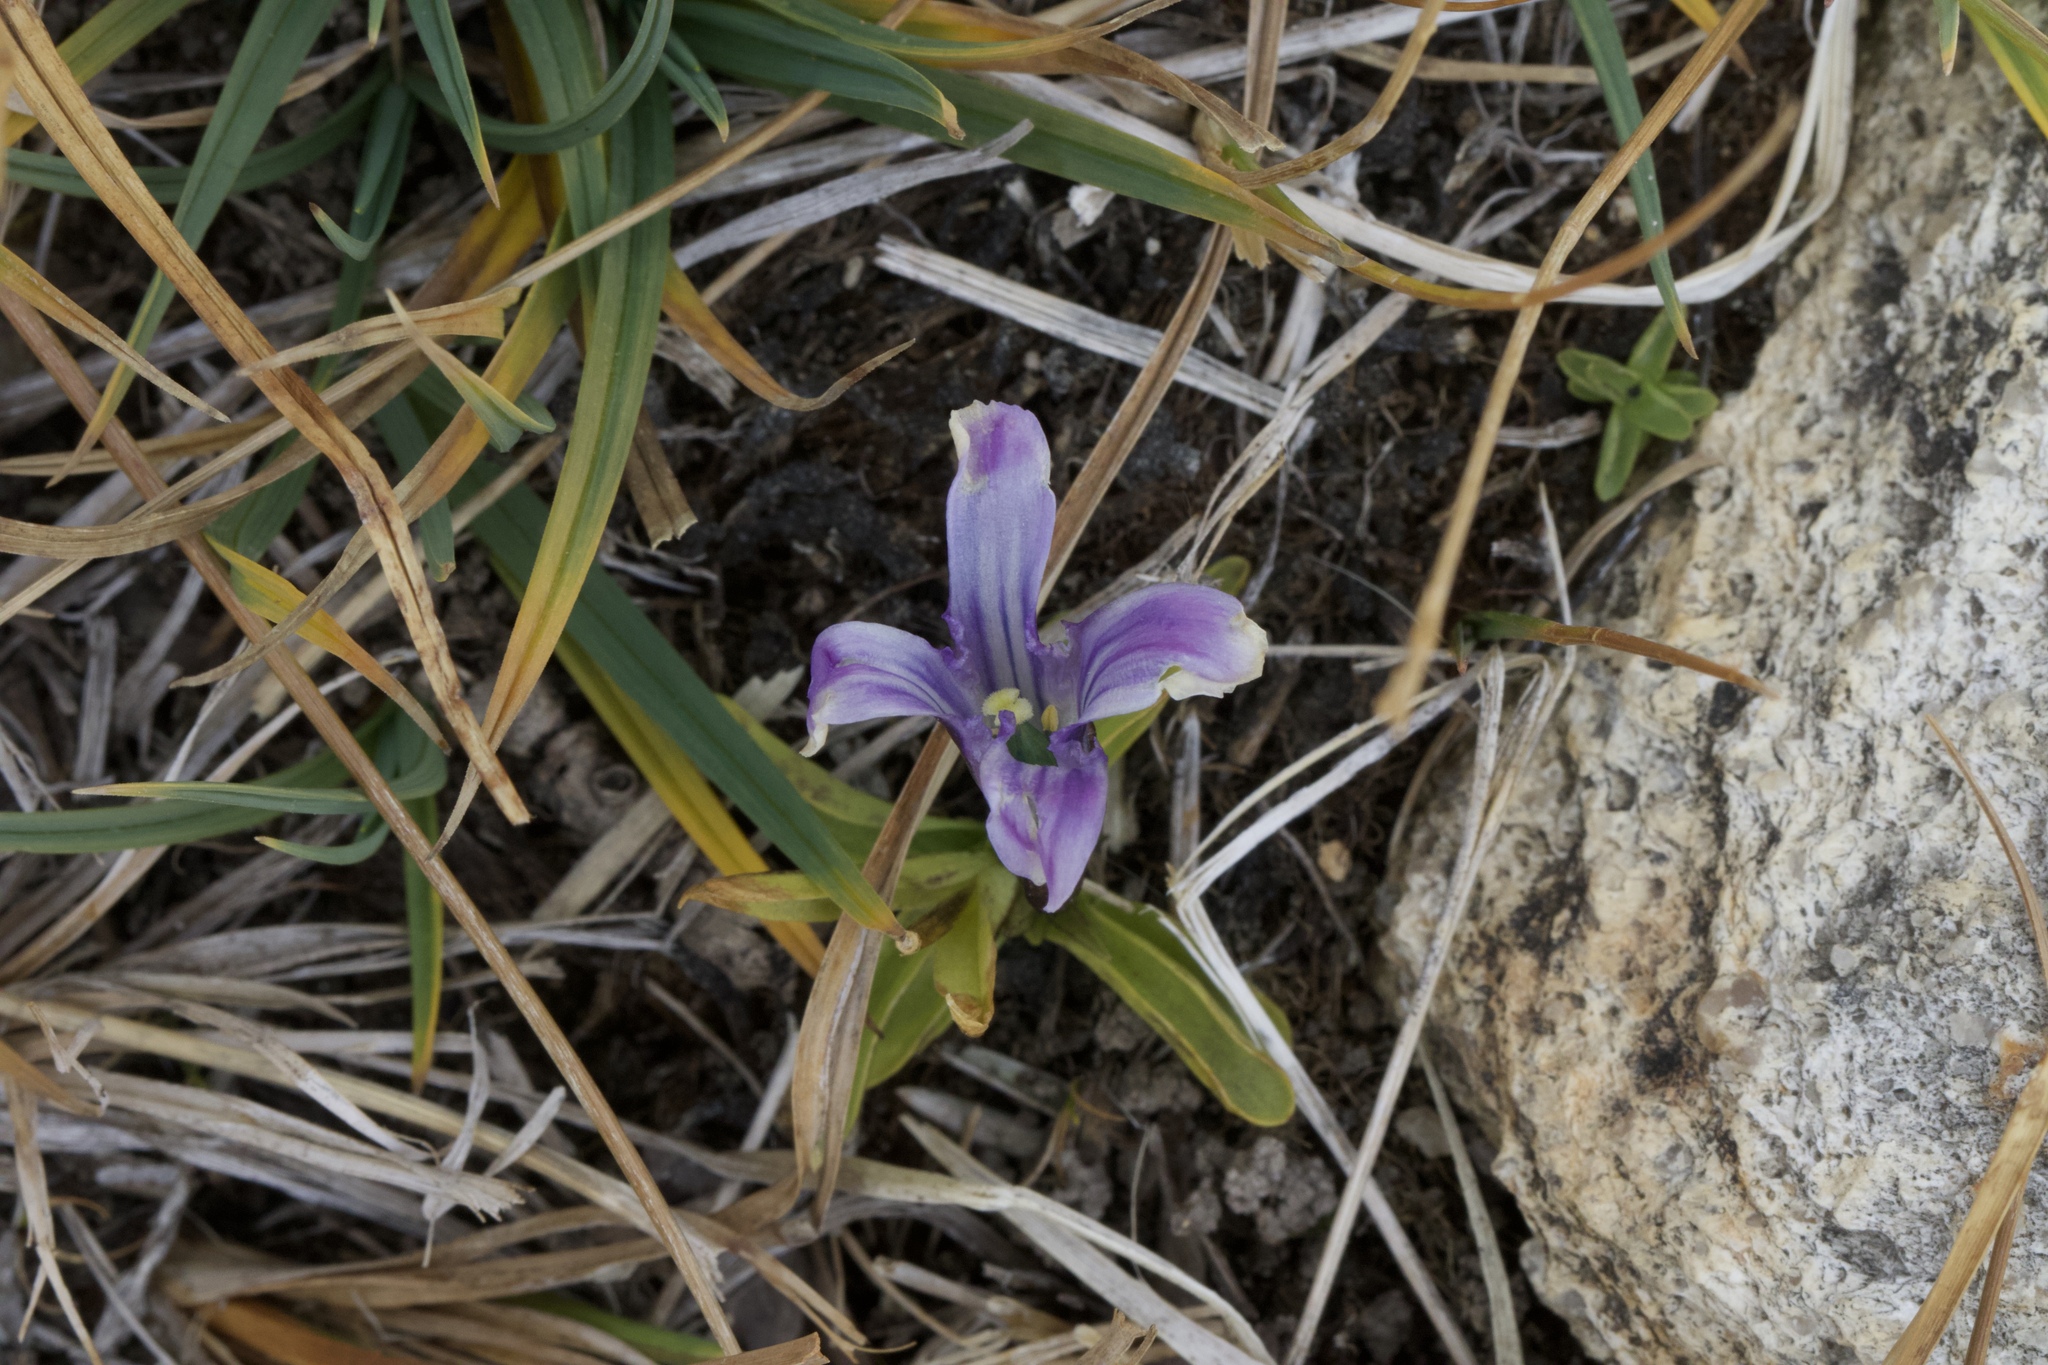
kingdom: Plantae
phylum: Tracheophyta
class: Magnoliopsida
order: Gentianales
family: Gentianaceae
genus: Gentianopsis
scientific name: Gentianopsis holopetala
